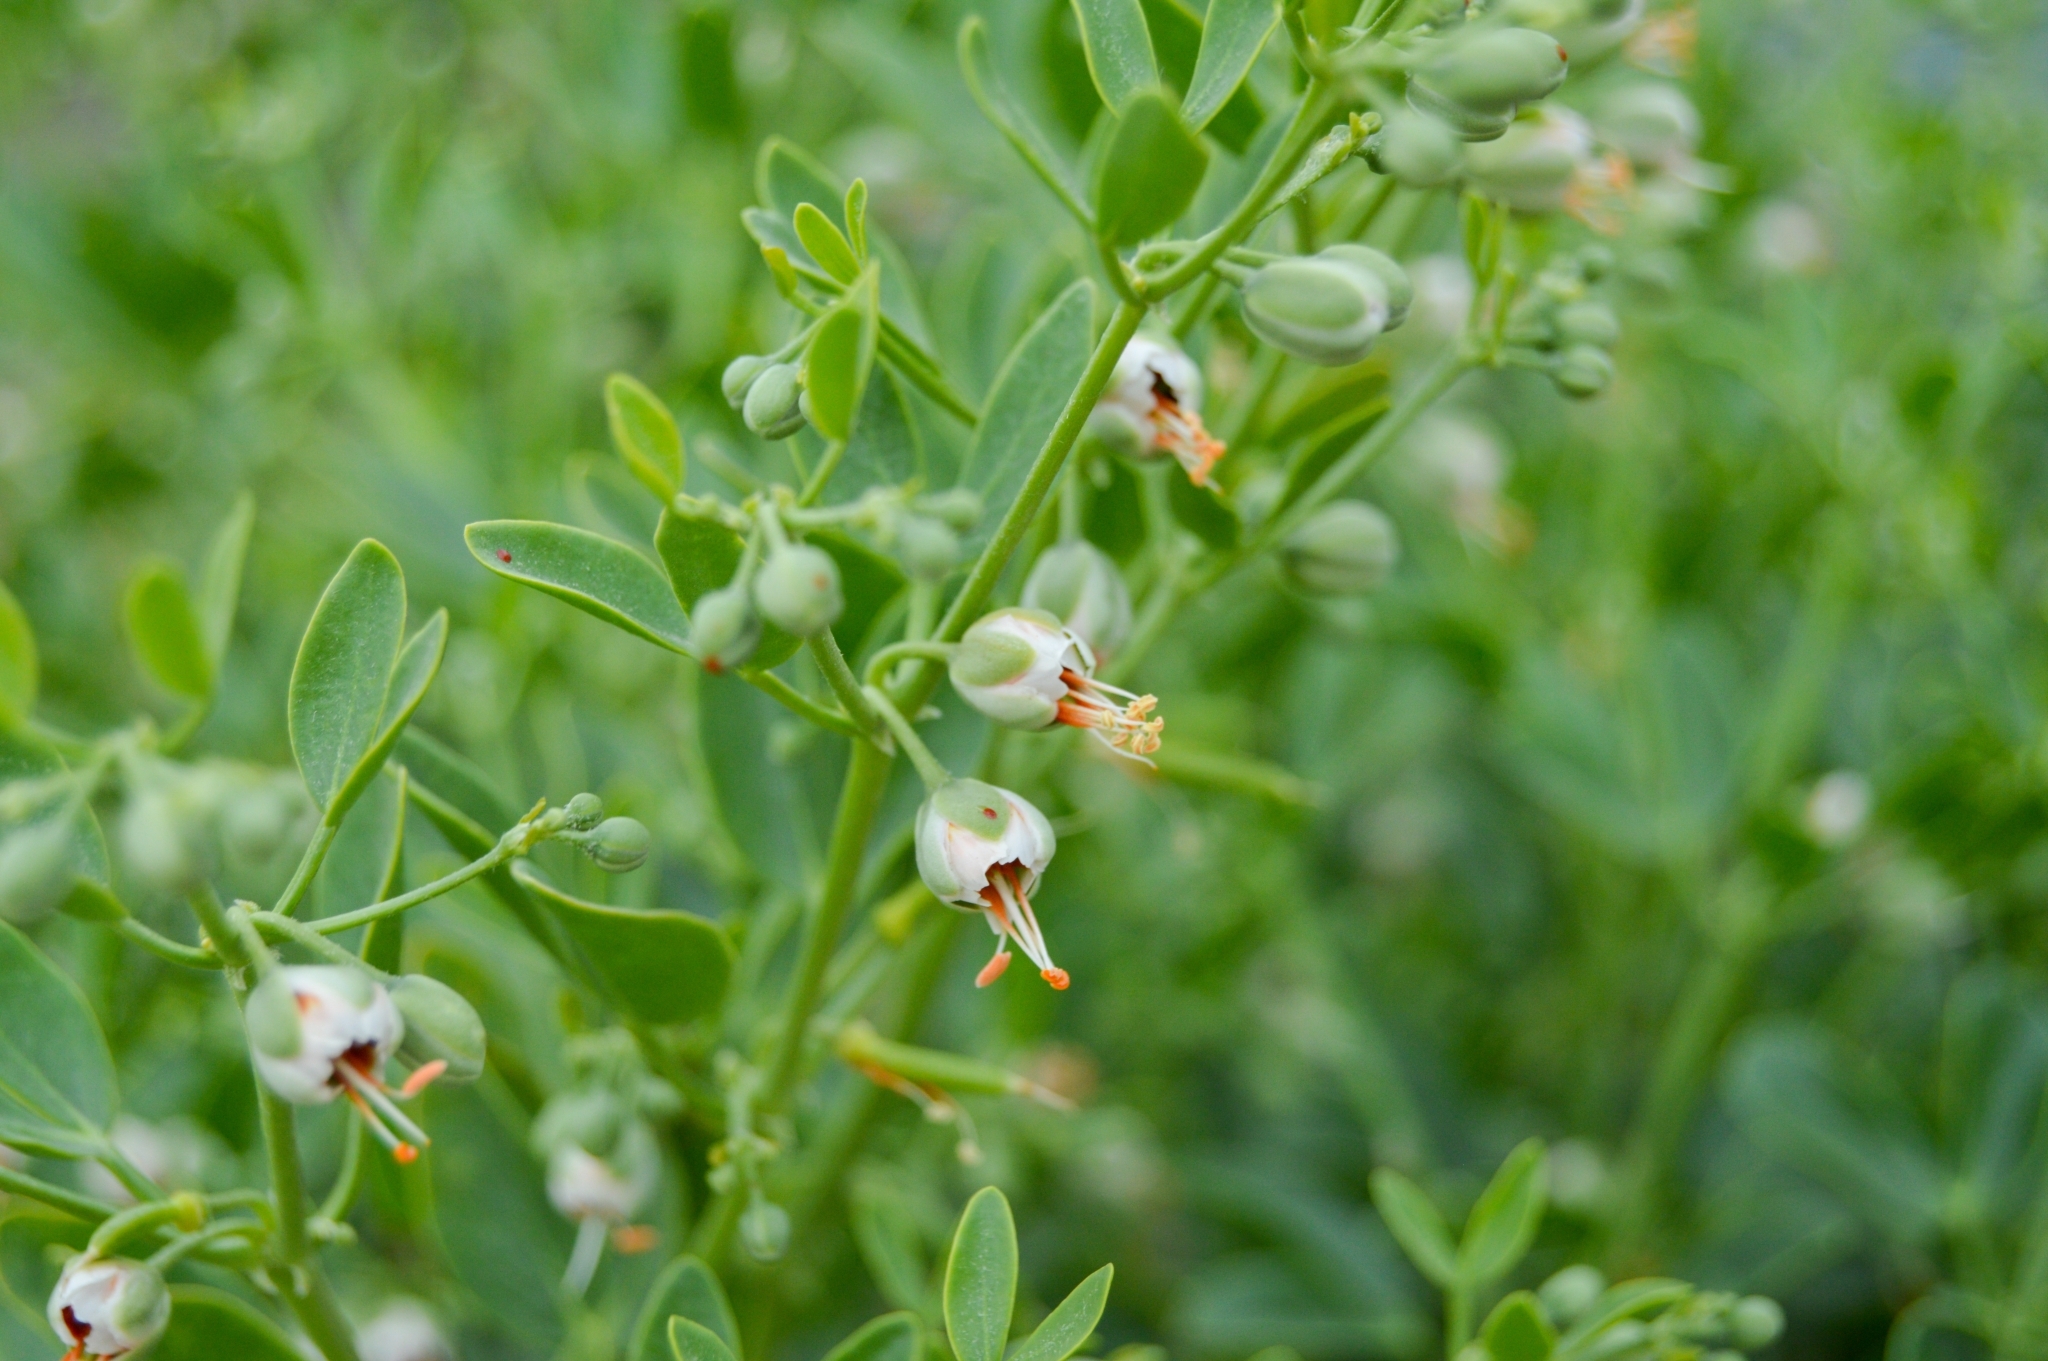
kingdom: Plantae
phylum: Tracheophyta
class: Magnoliopsida
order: Zygophyllales
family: Zygophyllaceae
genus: Zygophyllum
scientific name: Zygophyllum fabago
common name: Syrian beancaper
